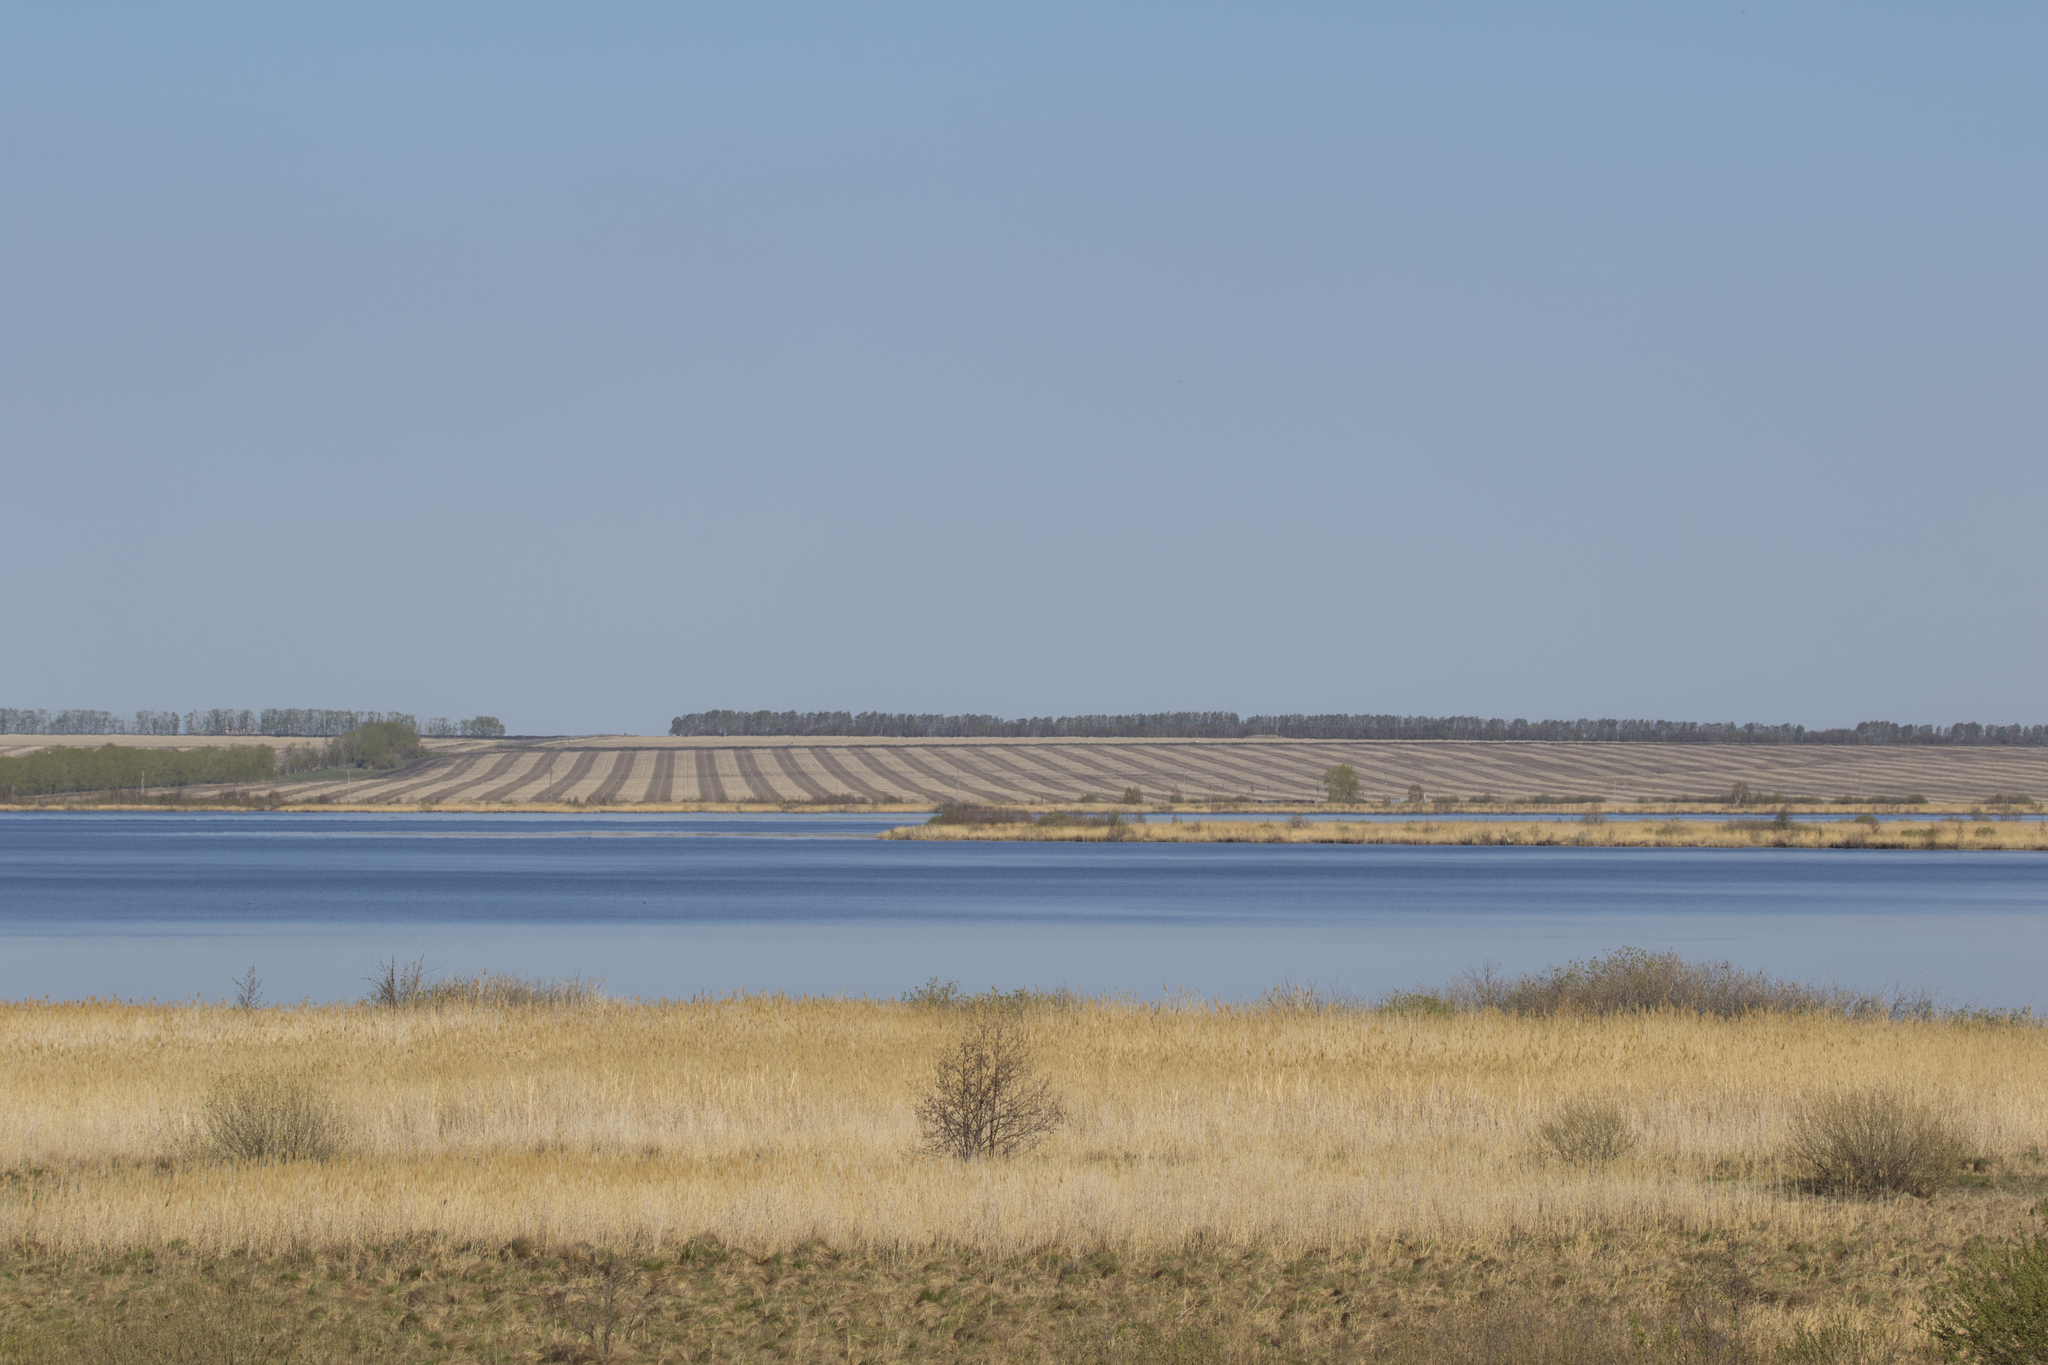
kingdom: Animalia
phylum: Chordata
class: Aves
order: Accipitriformes
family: Accipitridae
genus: Circus
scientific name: Circus aeruginosus
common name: Western marsh harrier
